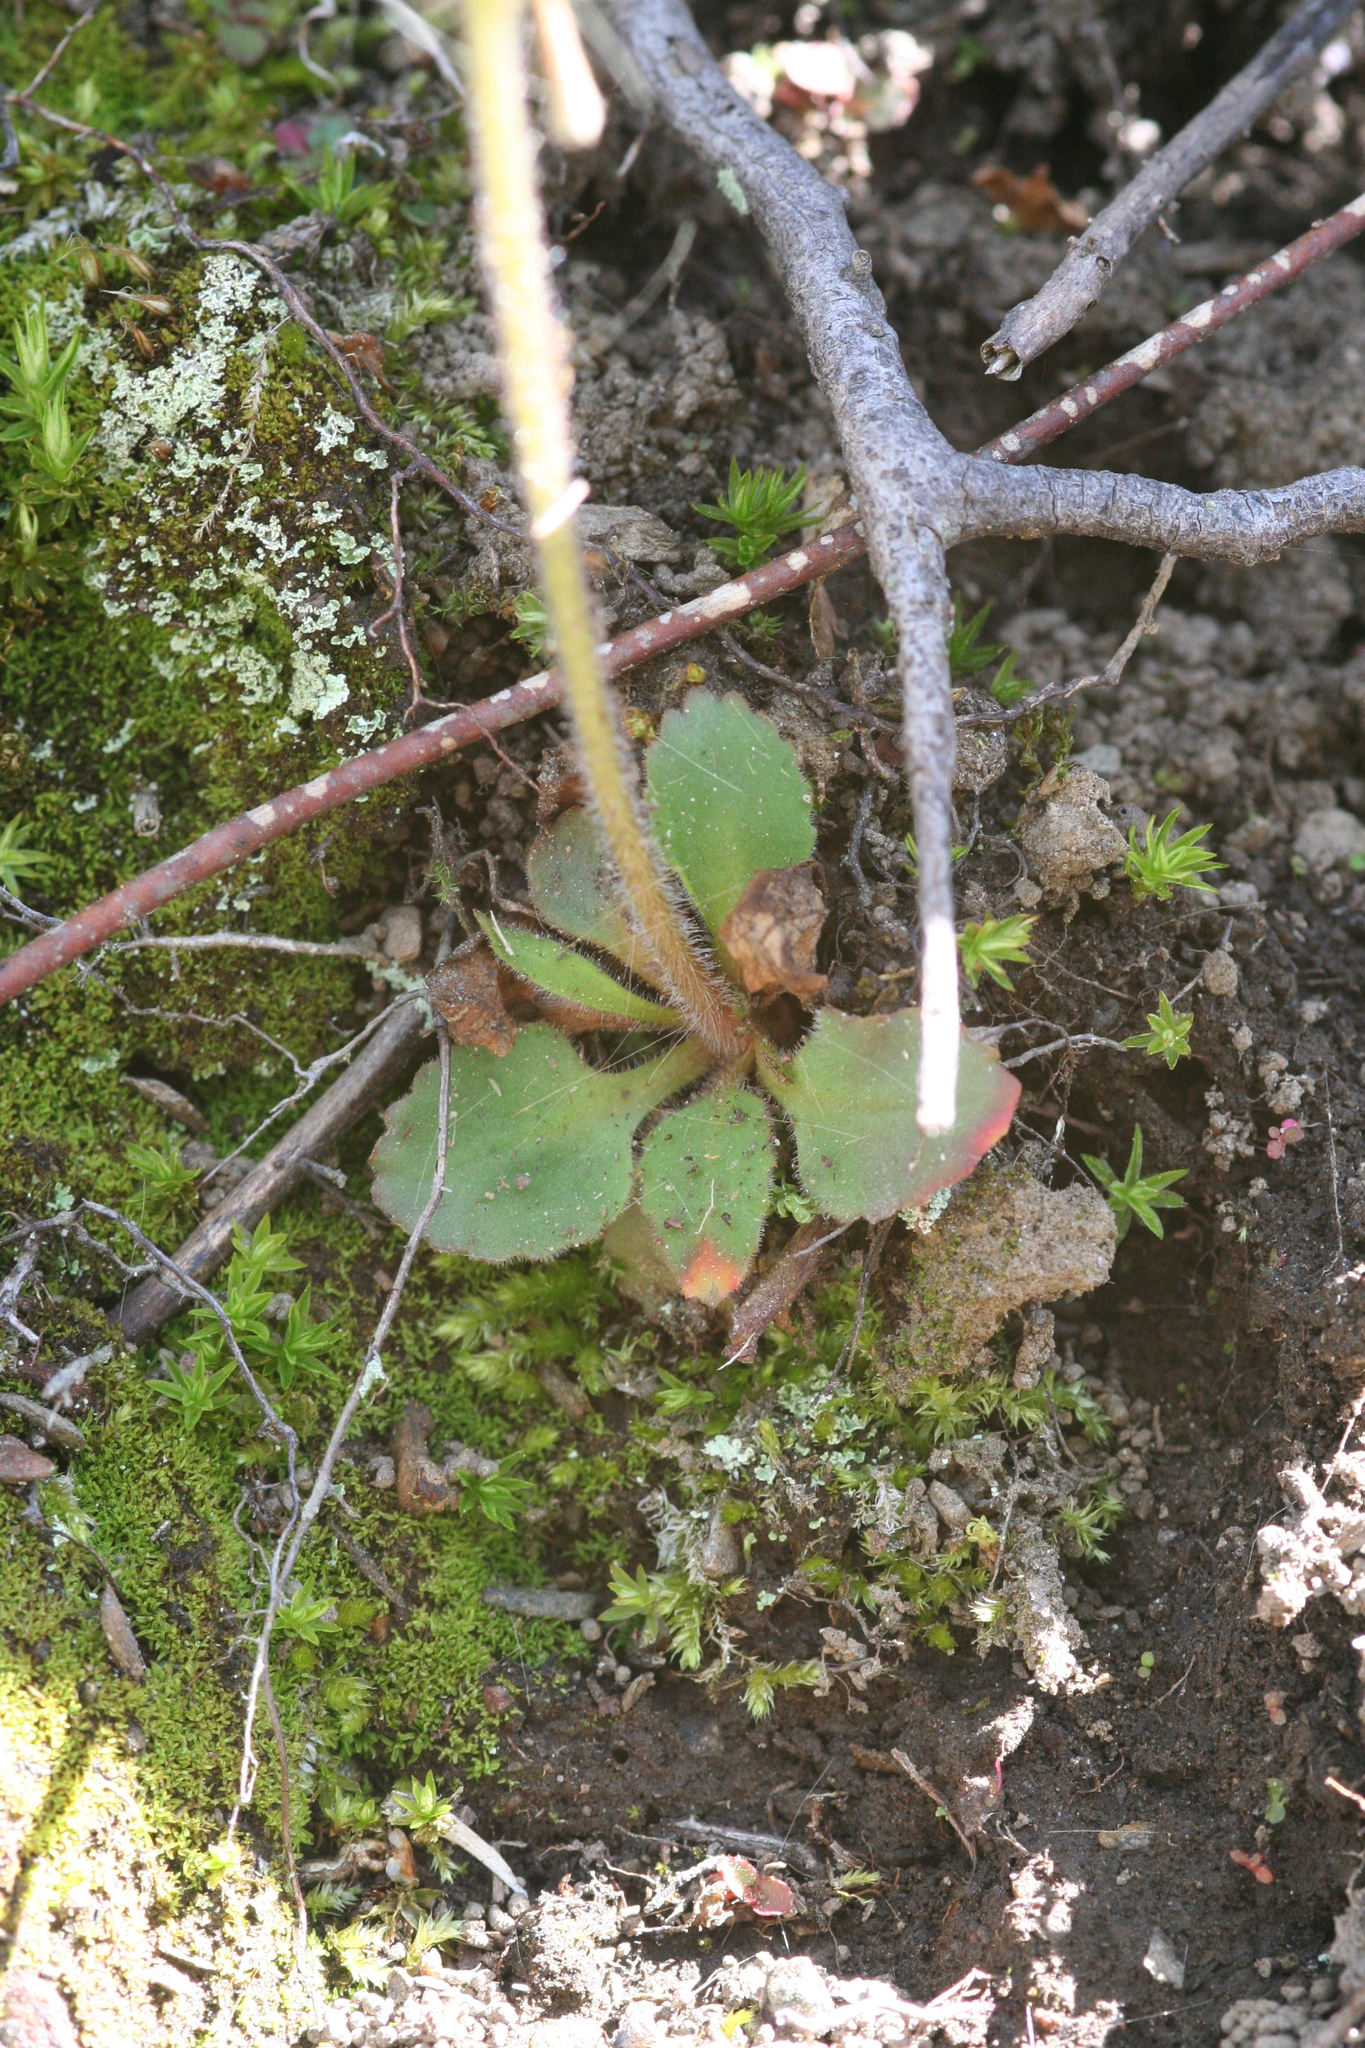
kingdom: Plantae
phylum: Tracheophyta
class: Magnoliopsida
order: Saxifragales
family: Saxifragaceae
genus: Micranthes
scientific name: Micranthes virginiensis
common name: Early saxifrage
